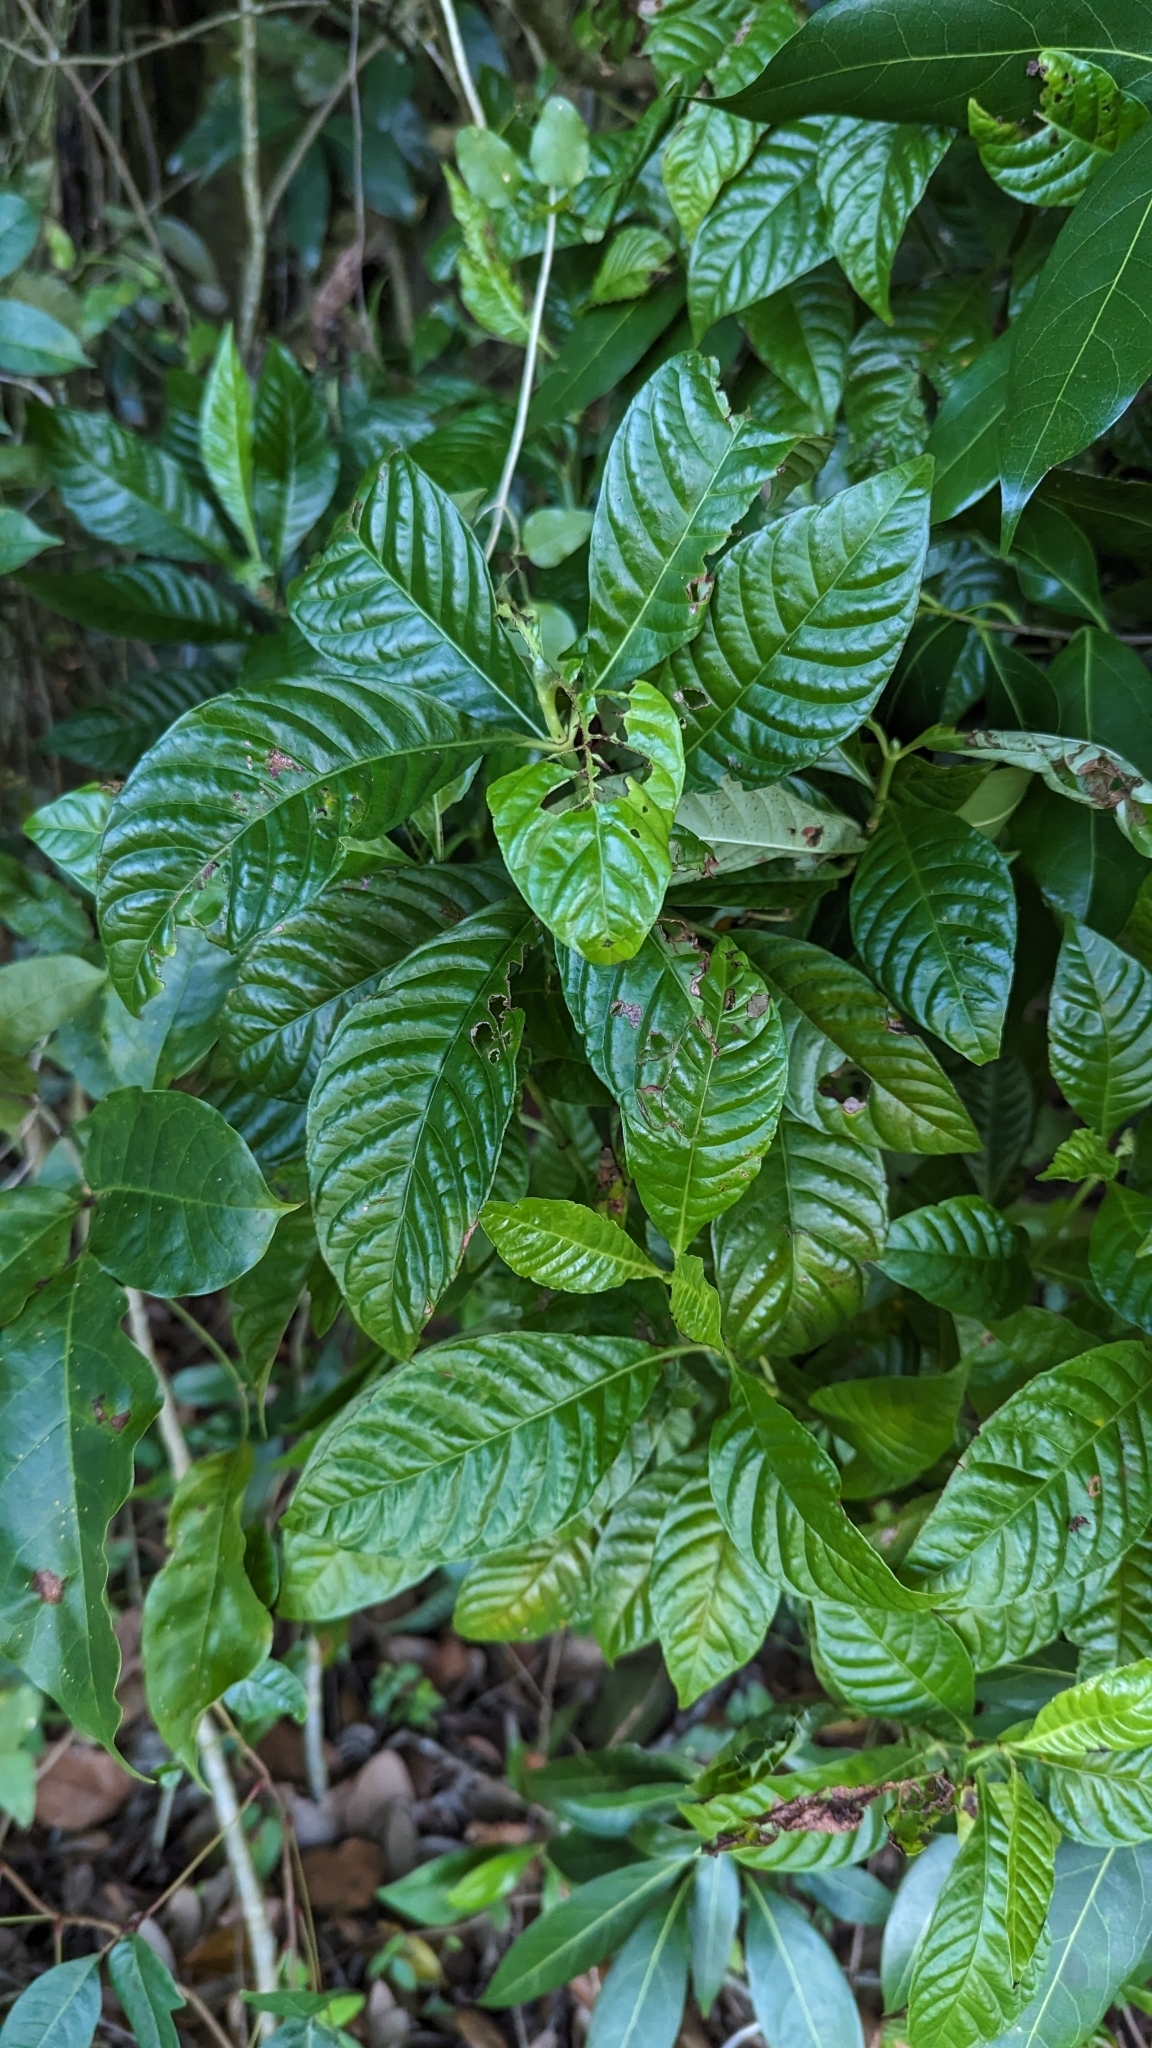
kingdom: Plantae
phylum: Tracheophyta
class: Magnoliopsida
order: Gentianales
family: Rubiaceae
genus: Psychotria
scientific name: Psychotria nervosa
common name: Bastard cankerberry
